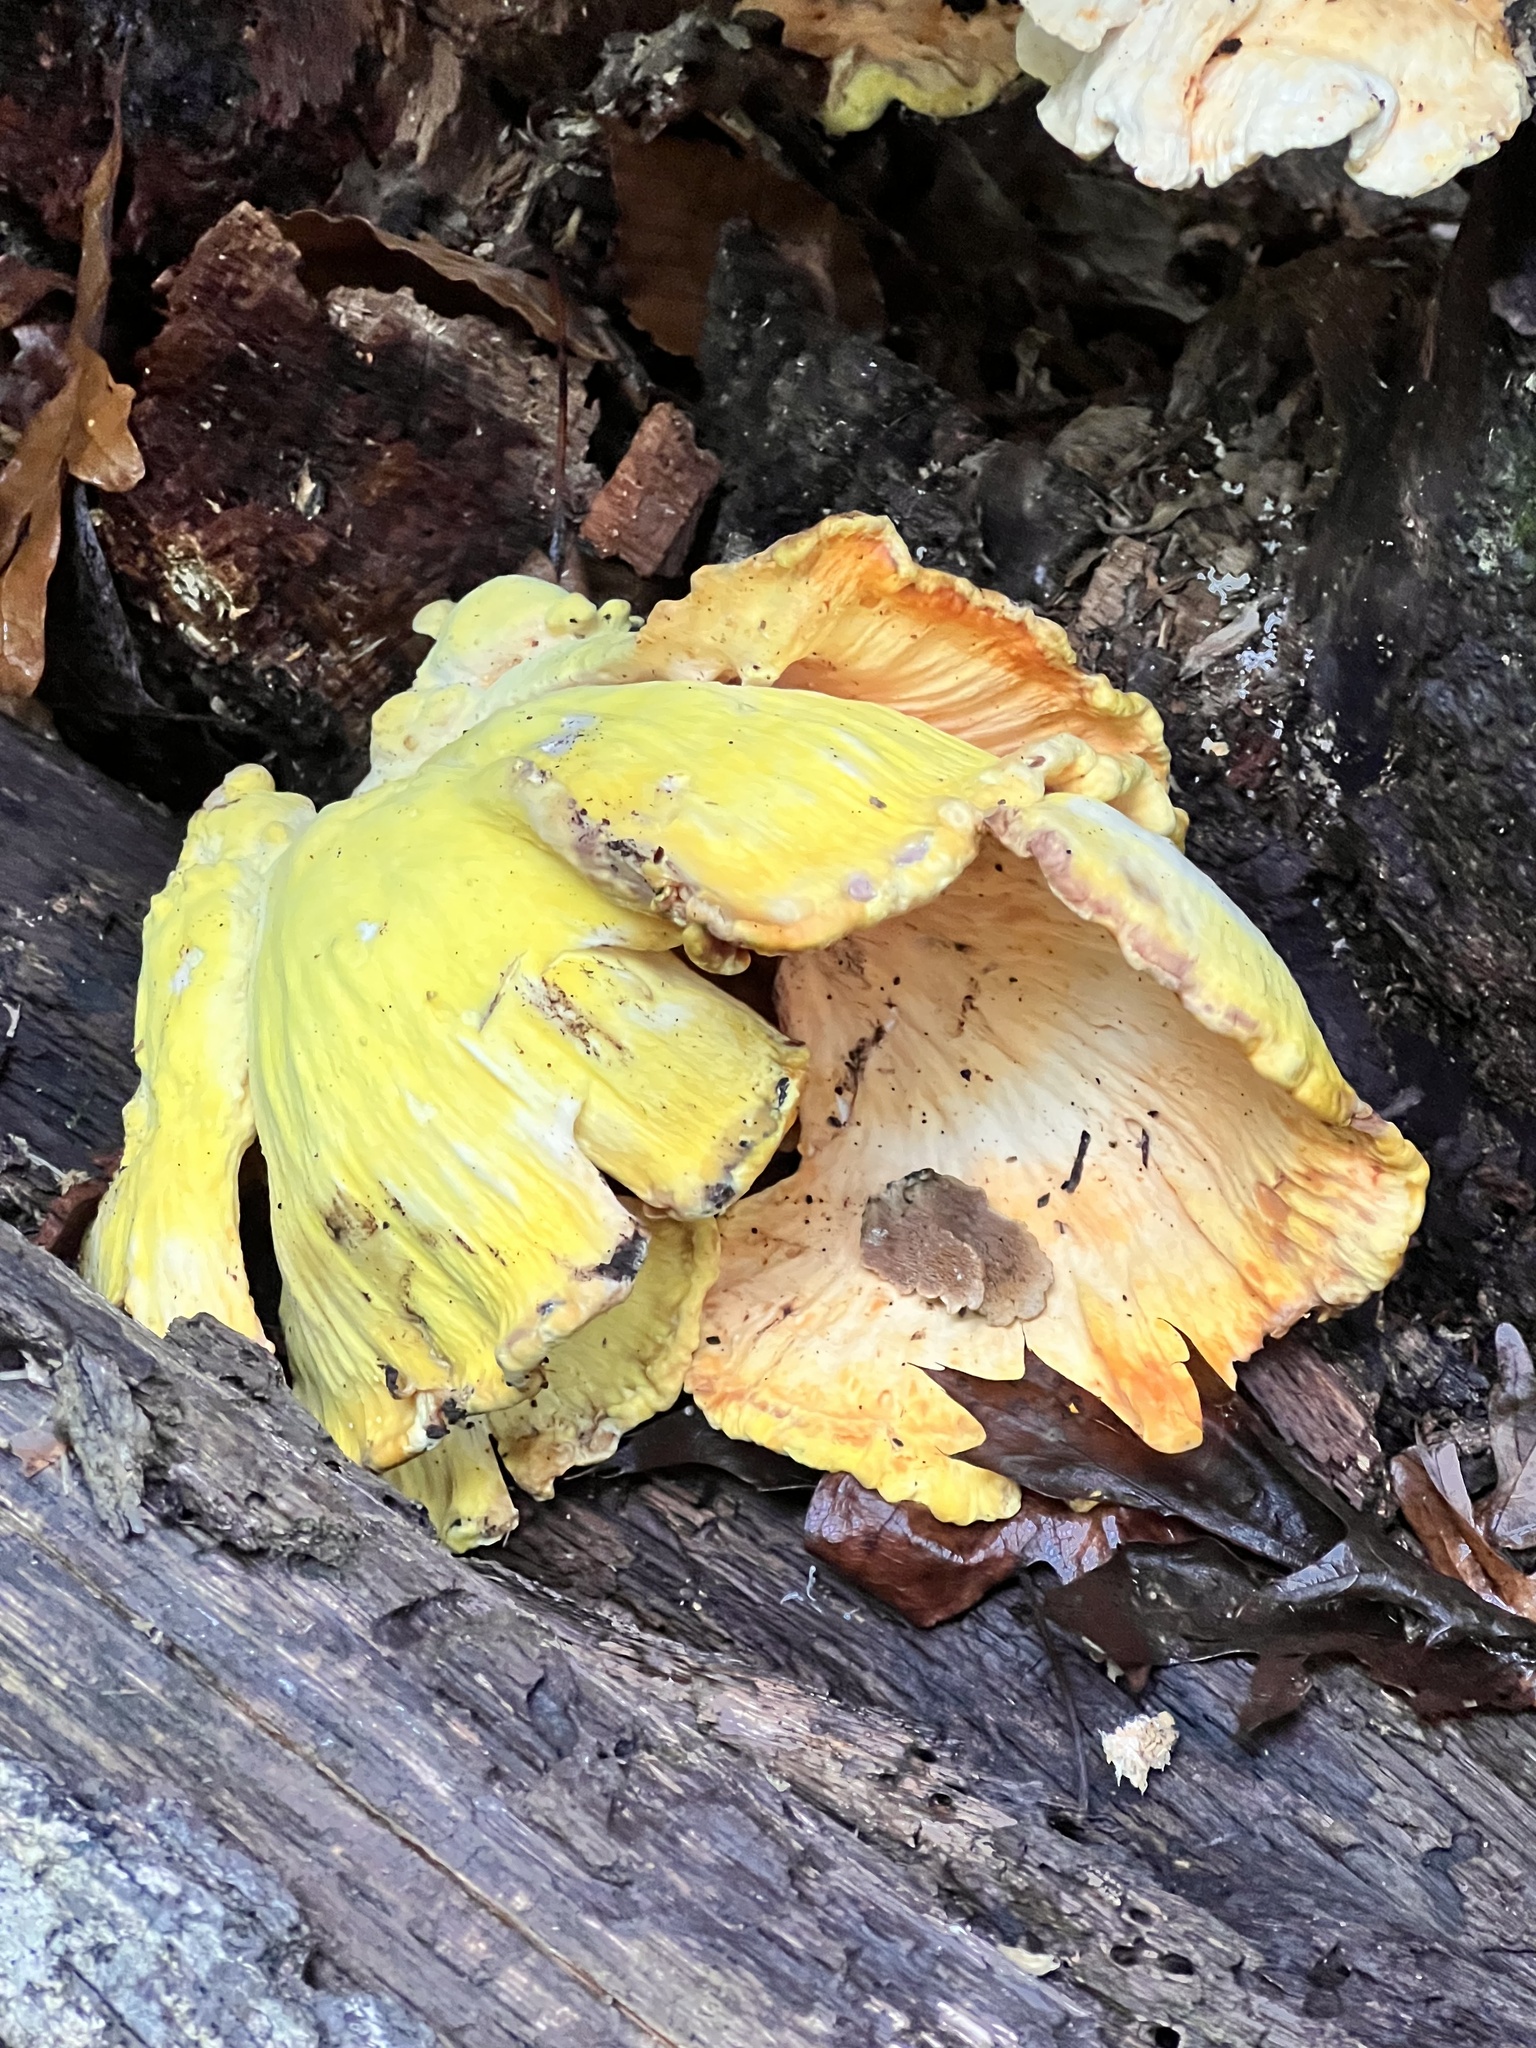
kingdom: Fungi
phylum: Basidiomycota
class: Agaricomycetes
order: Polyporales
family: Laetiporaceae
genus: Laetiporus
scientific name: Laetiporus sulphureus
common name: Chicken of the woods
